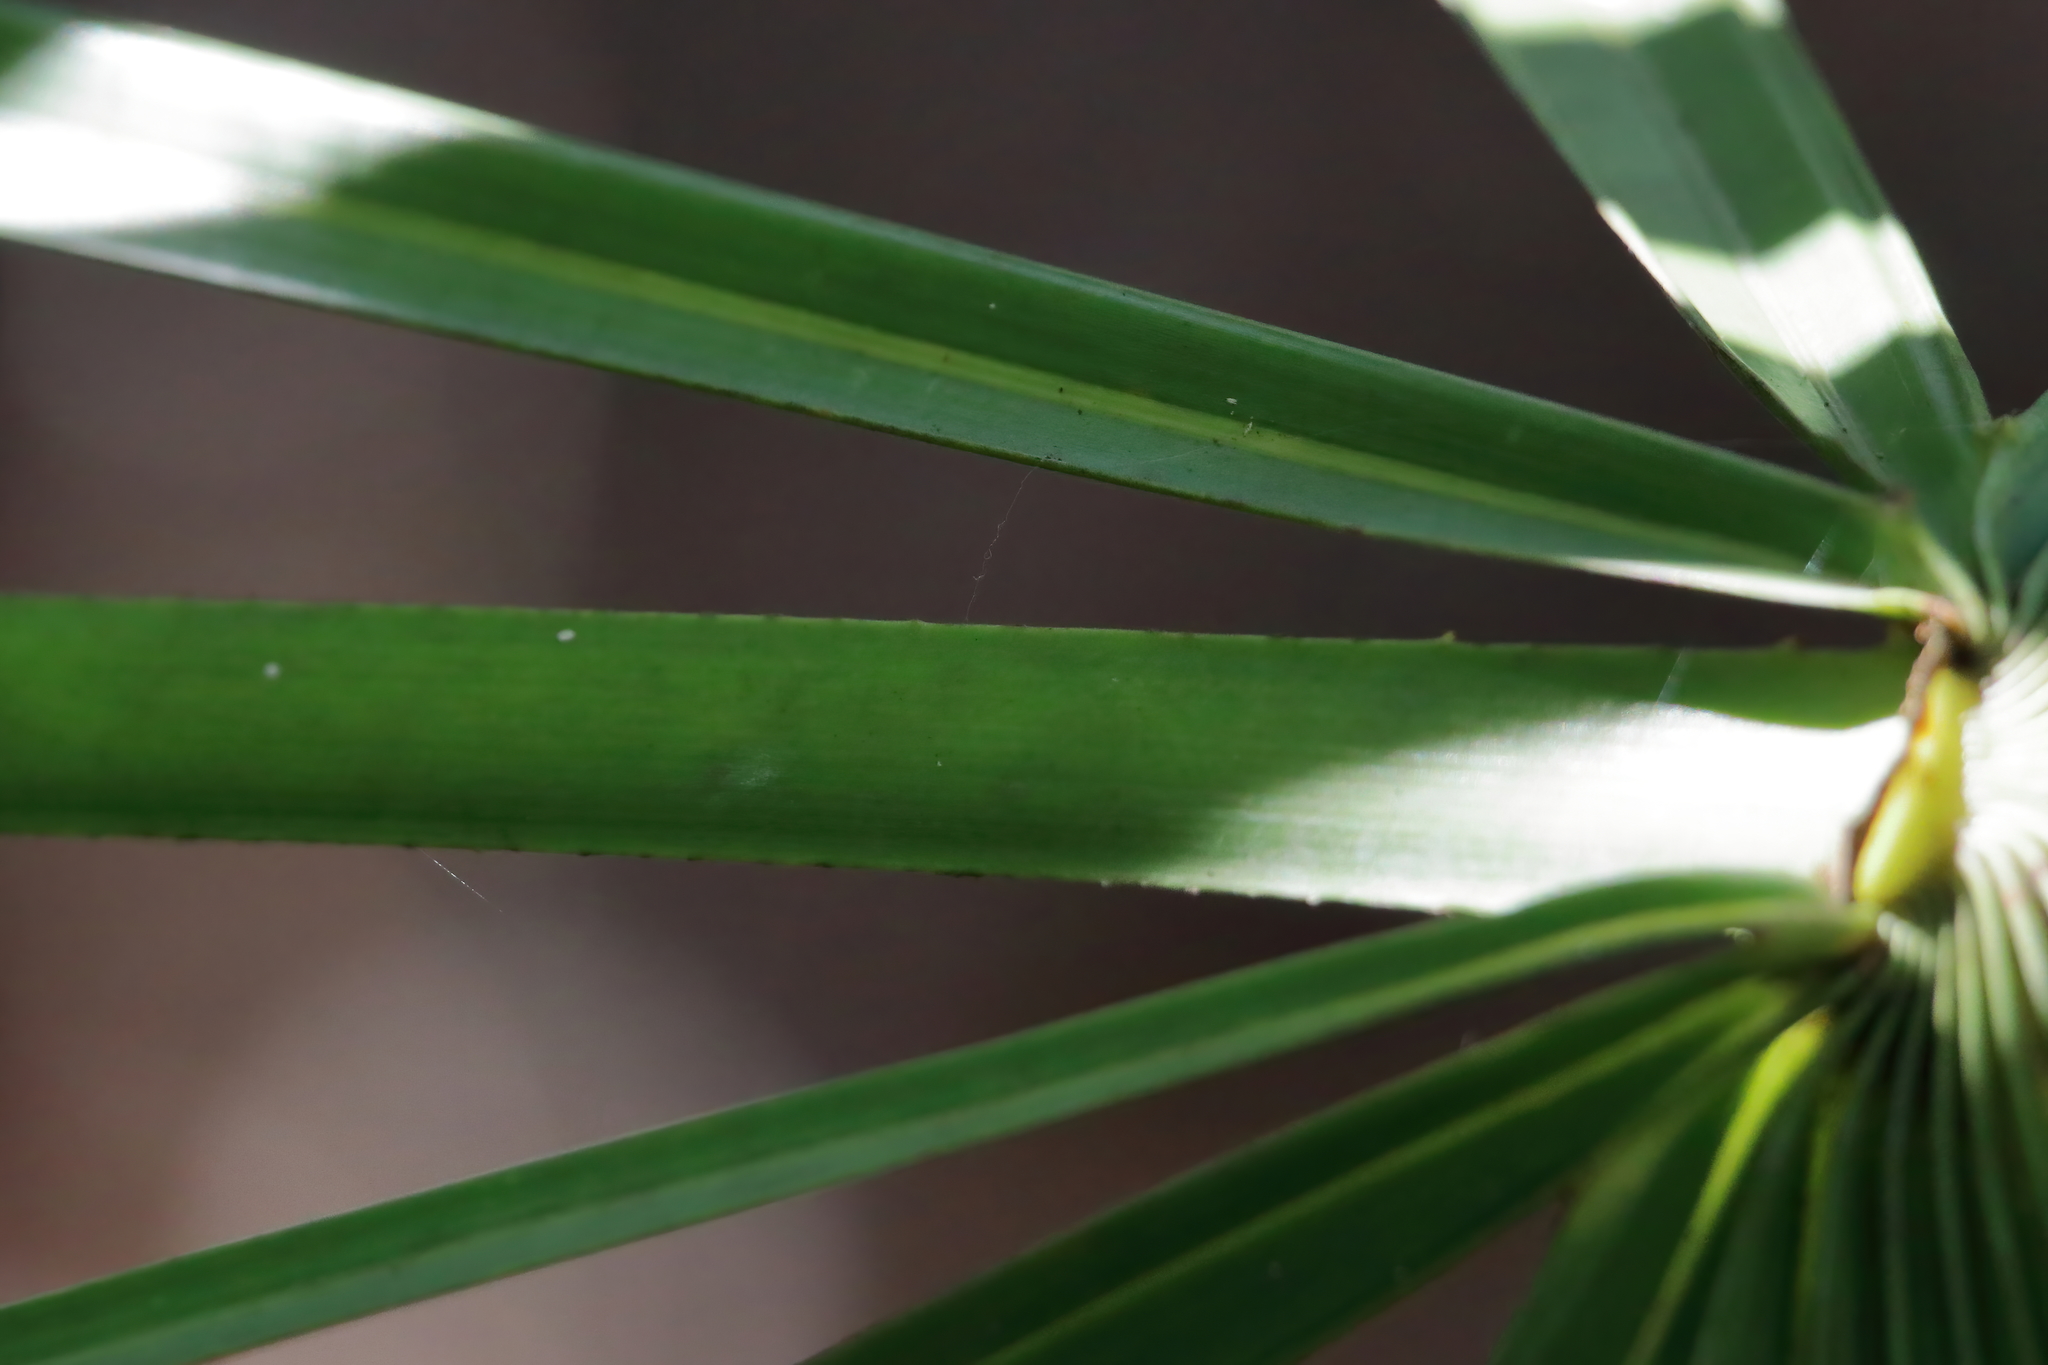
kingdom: Plantae
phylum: Tracheophyta
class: Liliopsida
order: Arecales
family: Arecaceae
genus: Serenoa
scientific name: Serenoa repens
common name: Saw-palmetto
